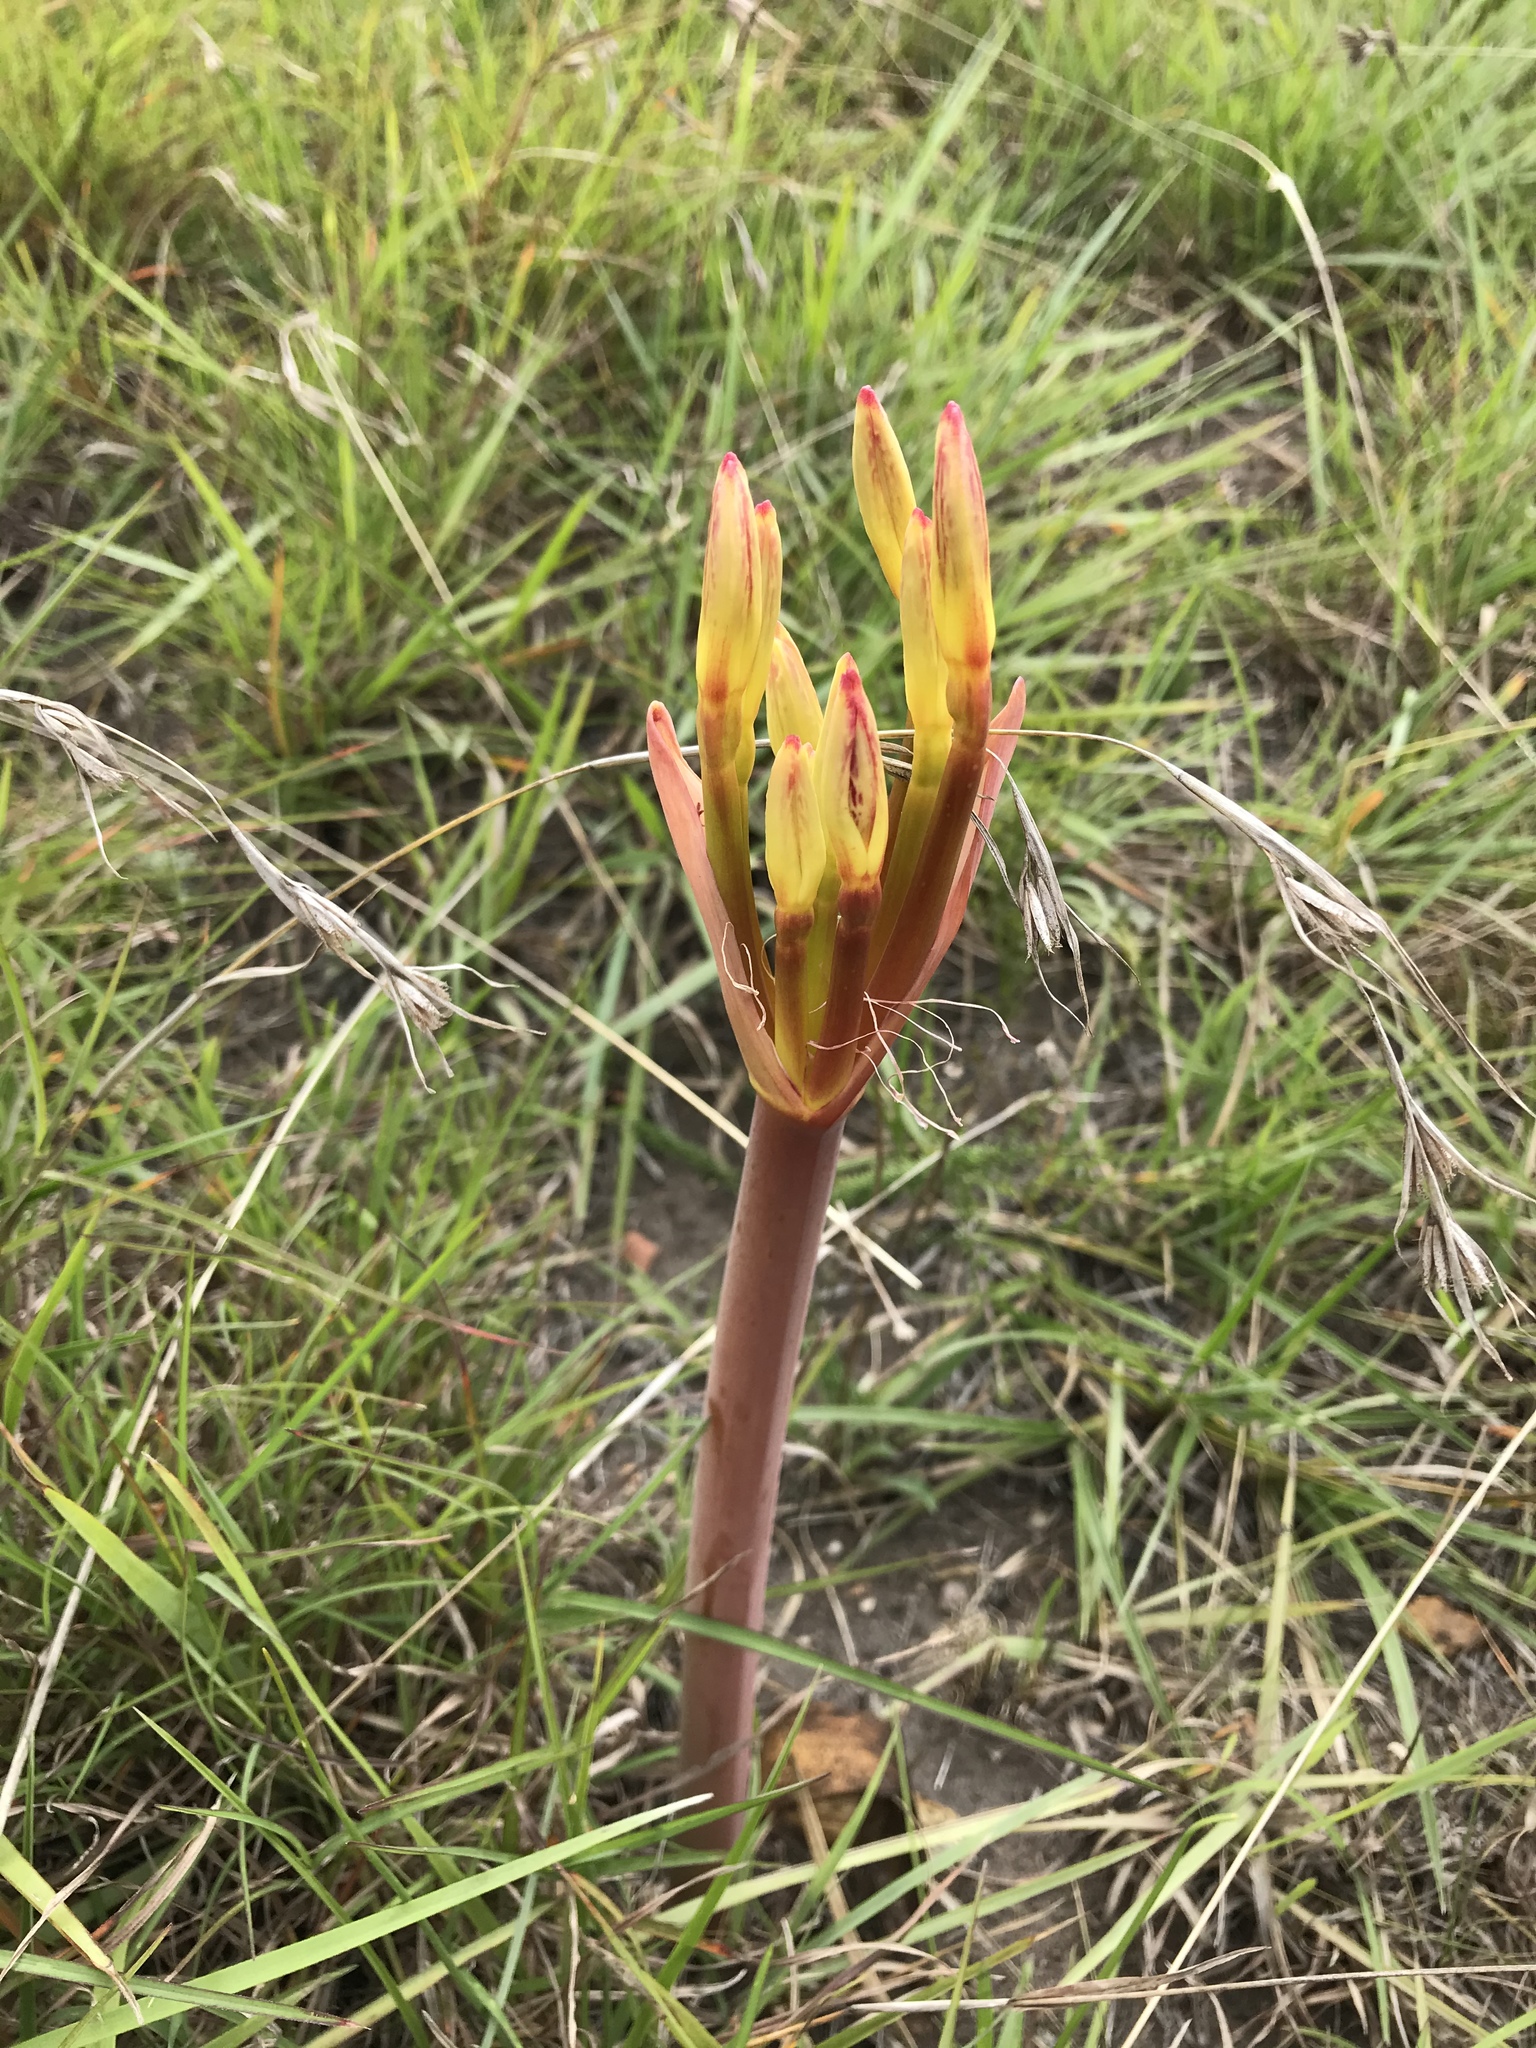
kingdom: Plantae
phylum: Tracheophyta
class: Liliopsida
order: Asparagales
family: Amaryllidaceae
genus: Brunsvigia
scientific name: Brunsvigia litoralis
